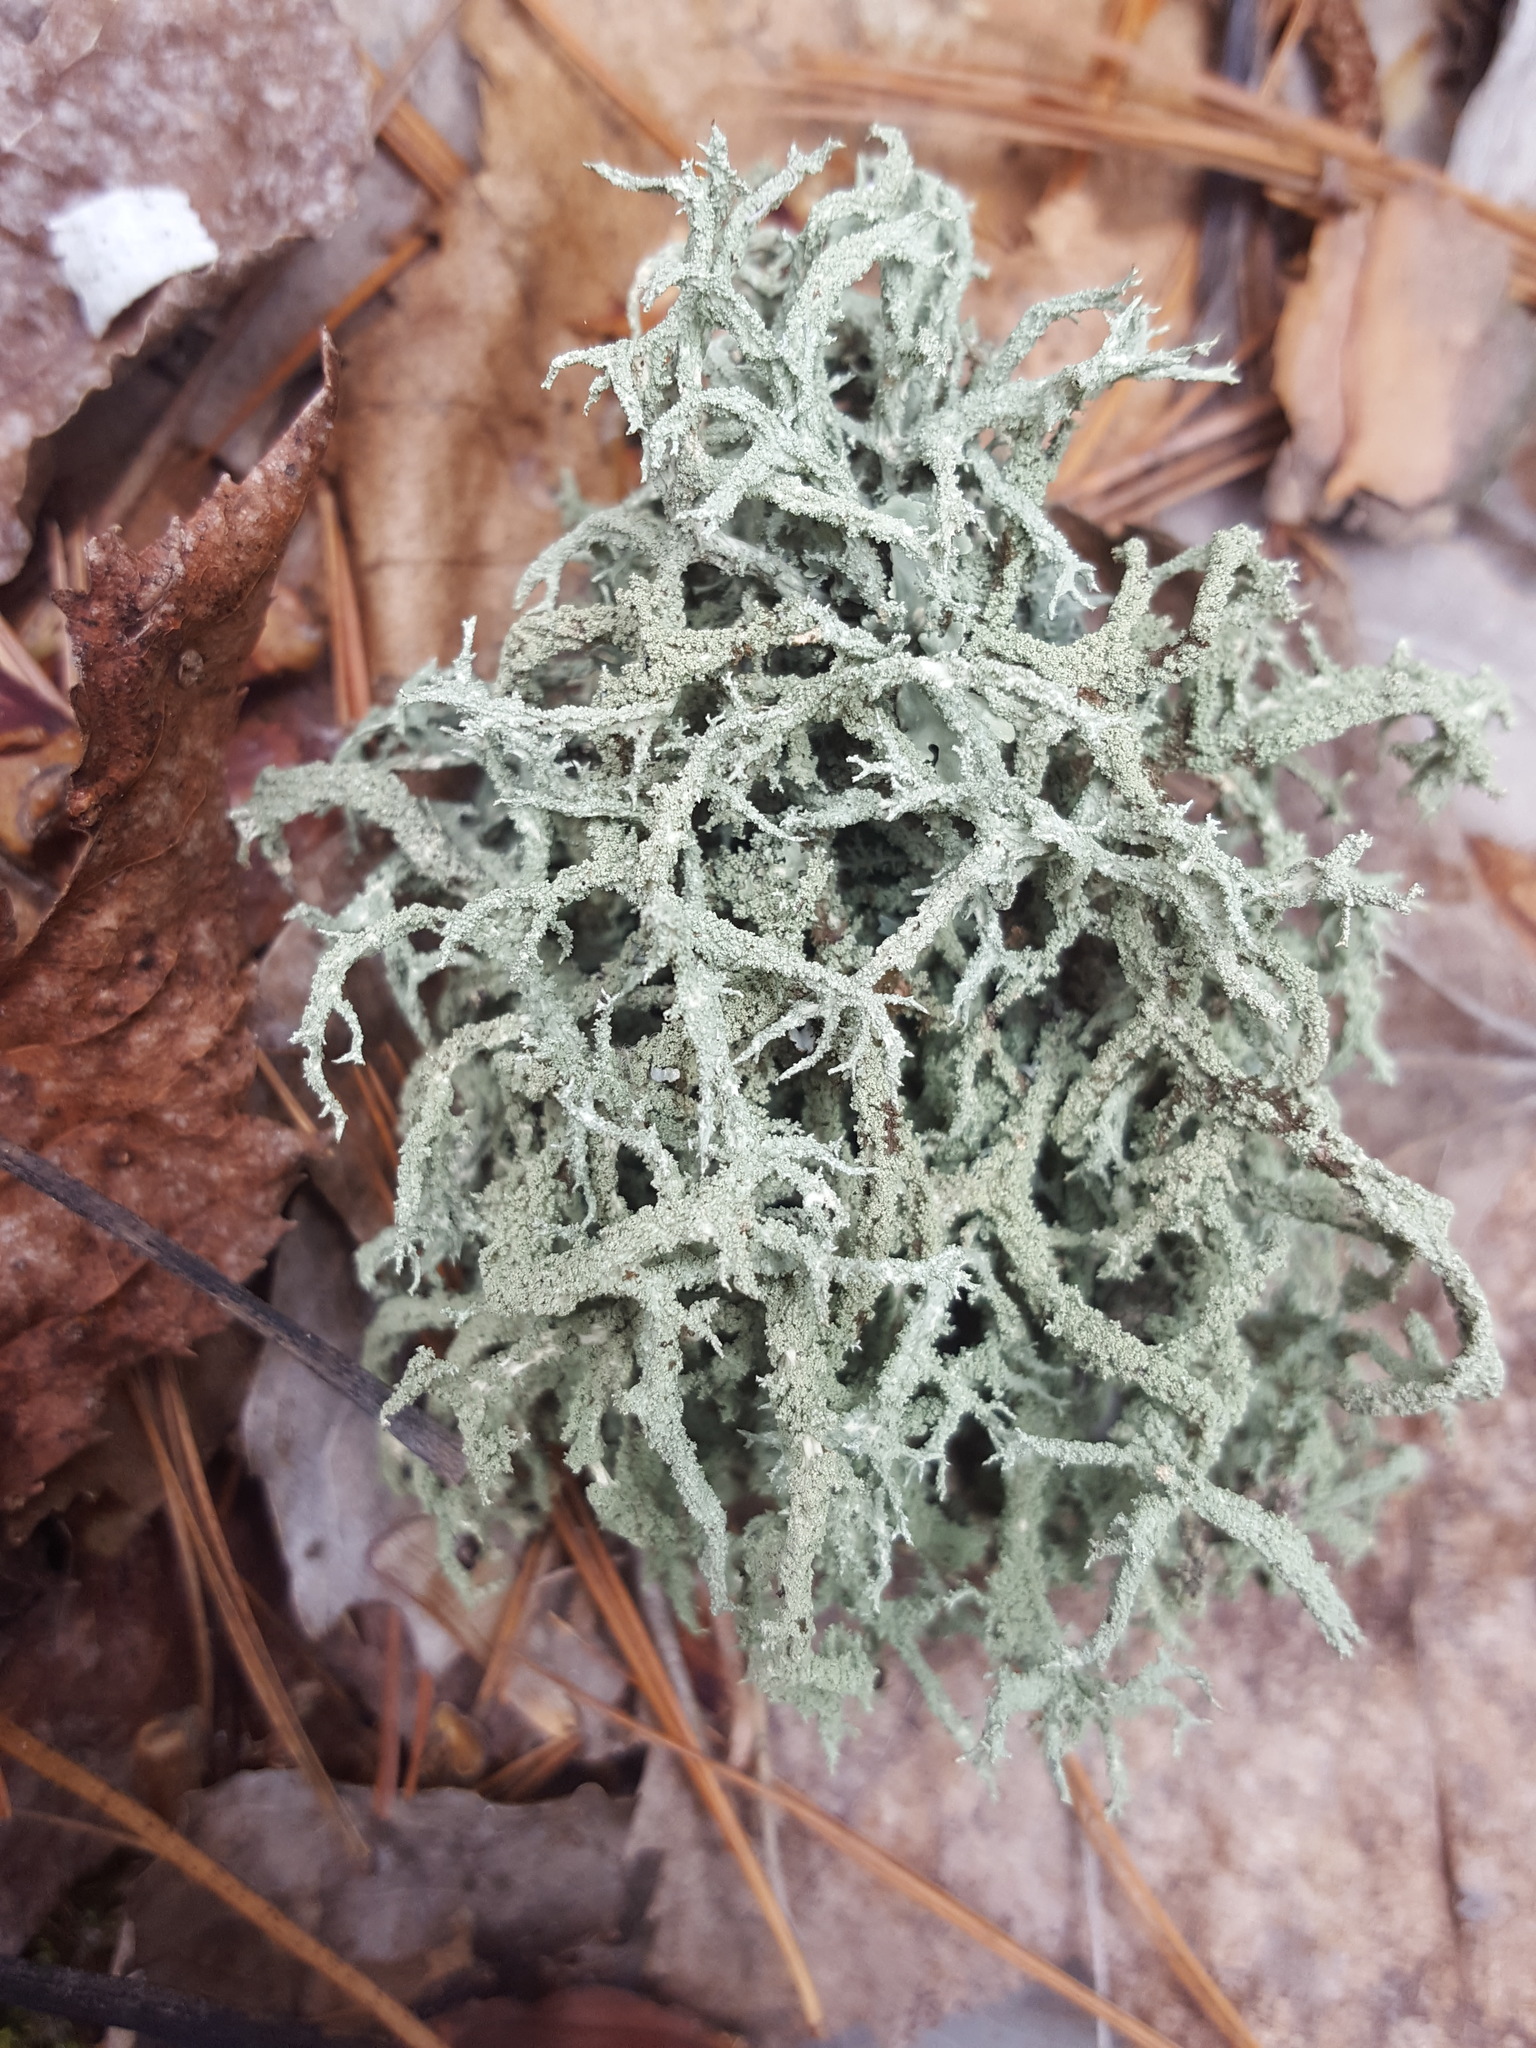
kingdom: Fungi
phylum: Ascomycota
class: Lecanoromycetes
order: Lecanorales
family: Parmeliaceae
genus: Evernia
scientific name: Evernia mesomorpha
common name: Boreal oak moss lichen
